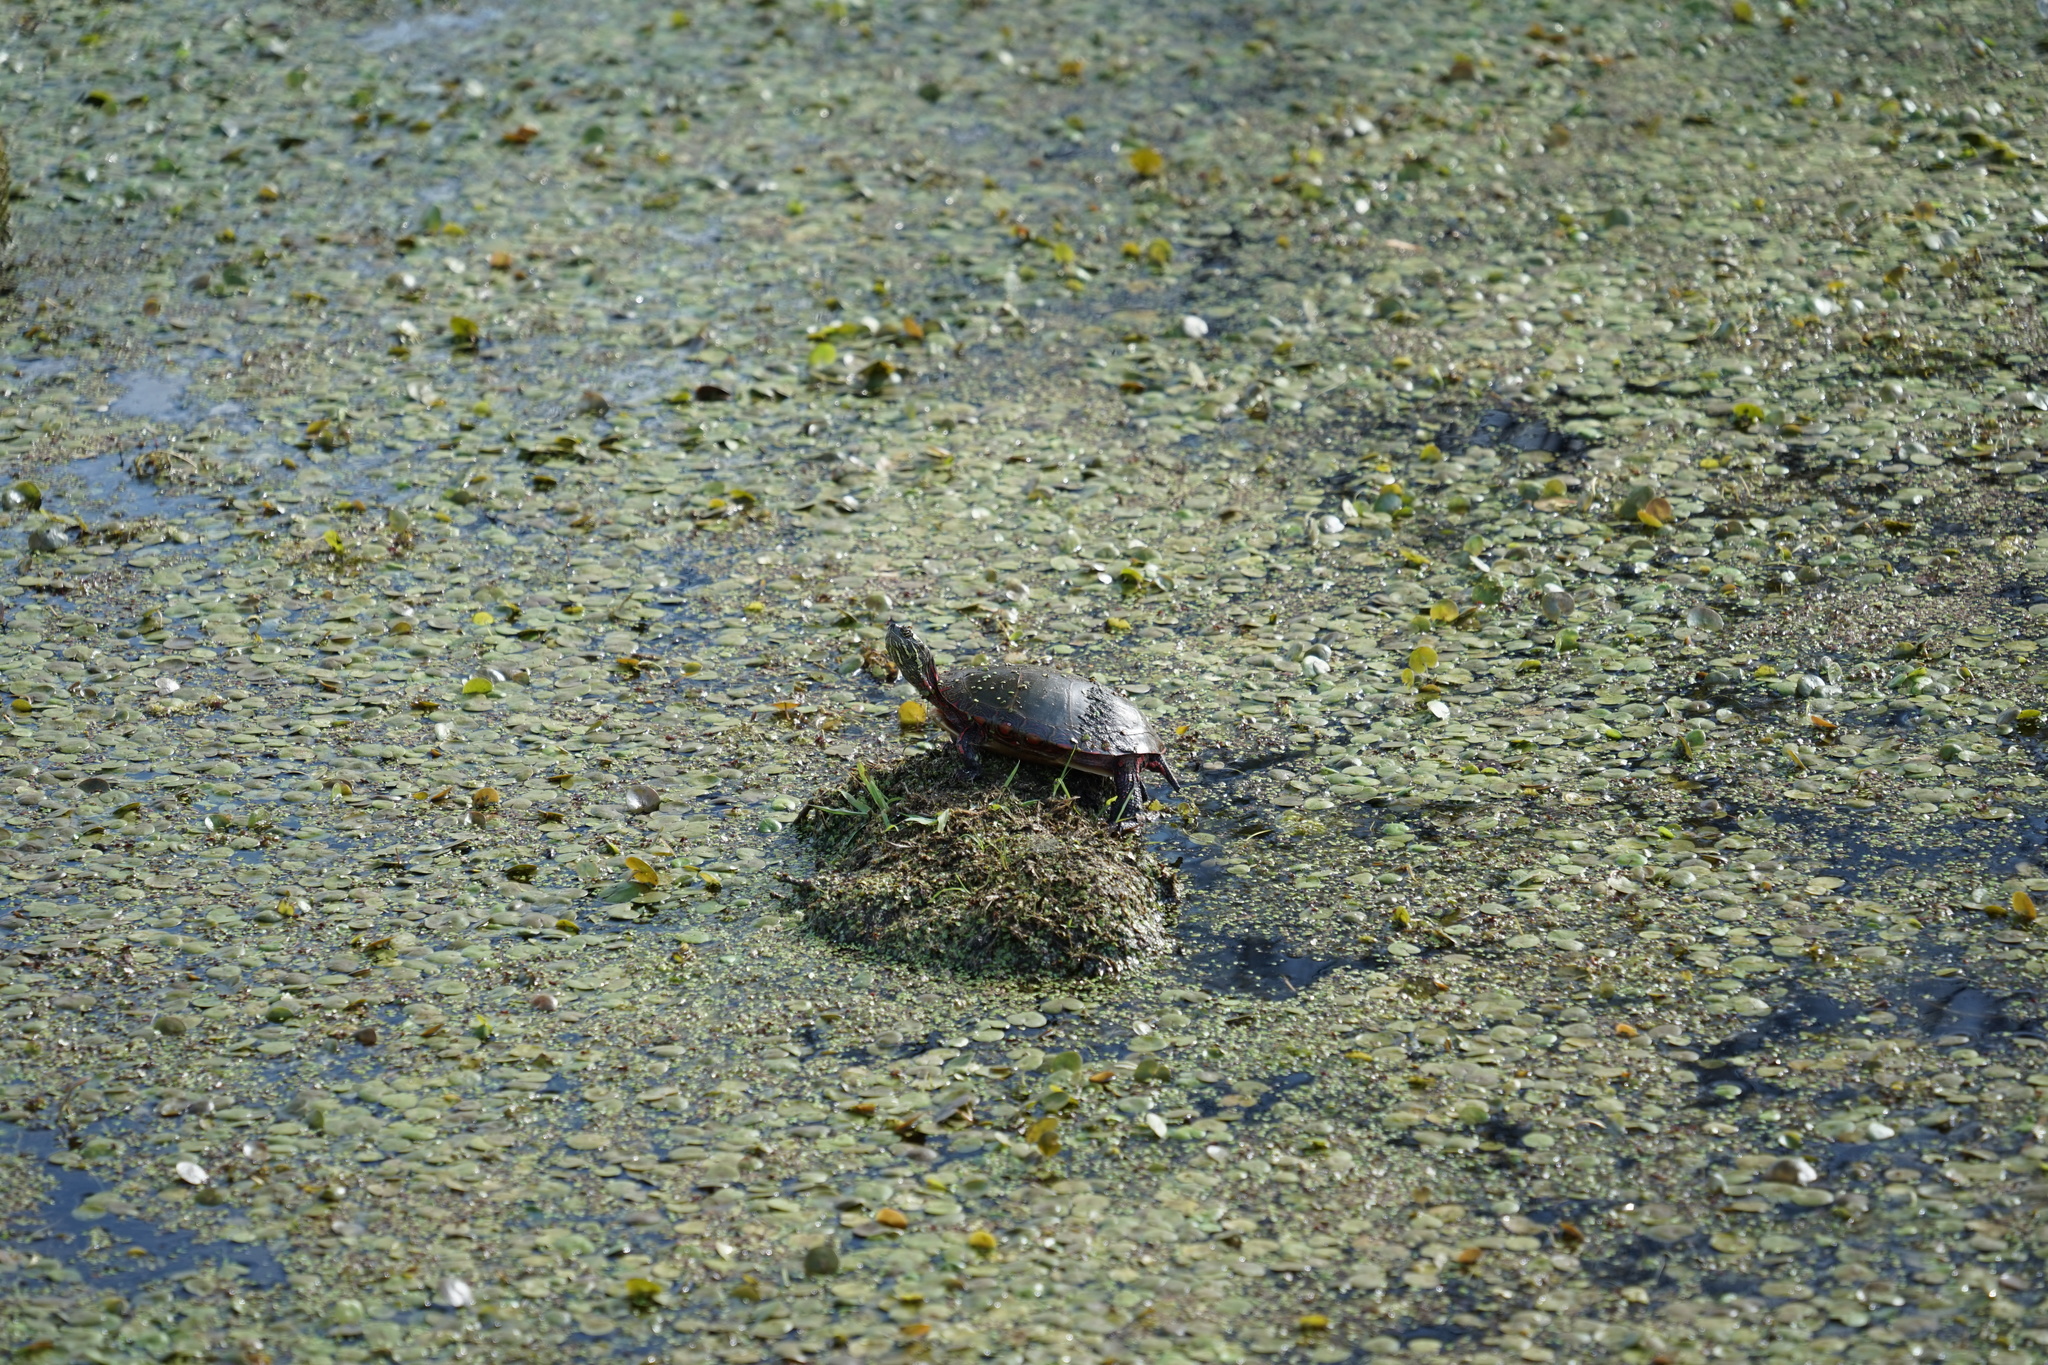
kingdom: Animalia
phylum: Chordata
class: Testudines
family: Emydidae
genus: Chrysemys
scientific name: Chrysemys picta
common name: Painted turtle
